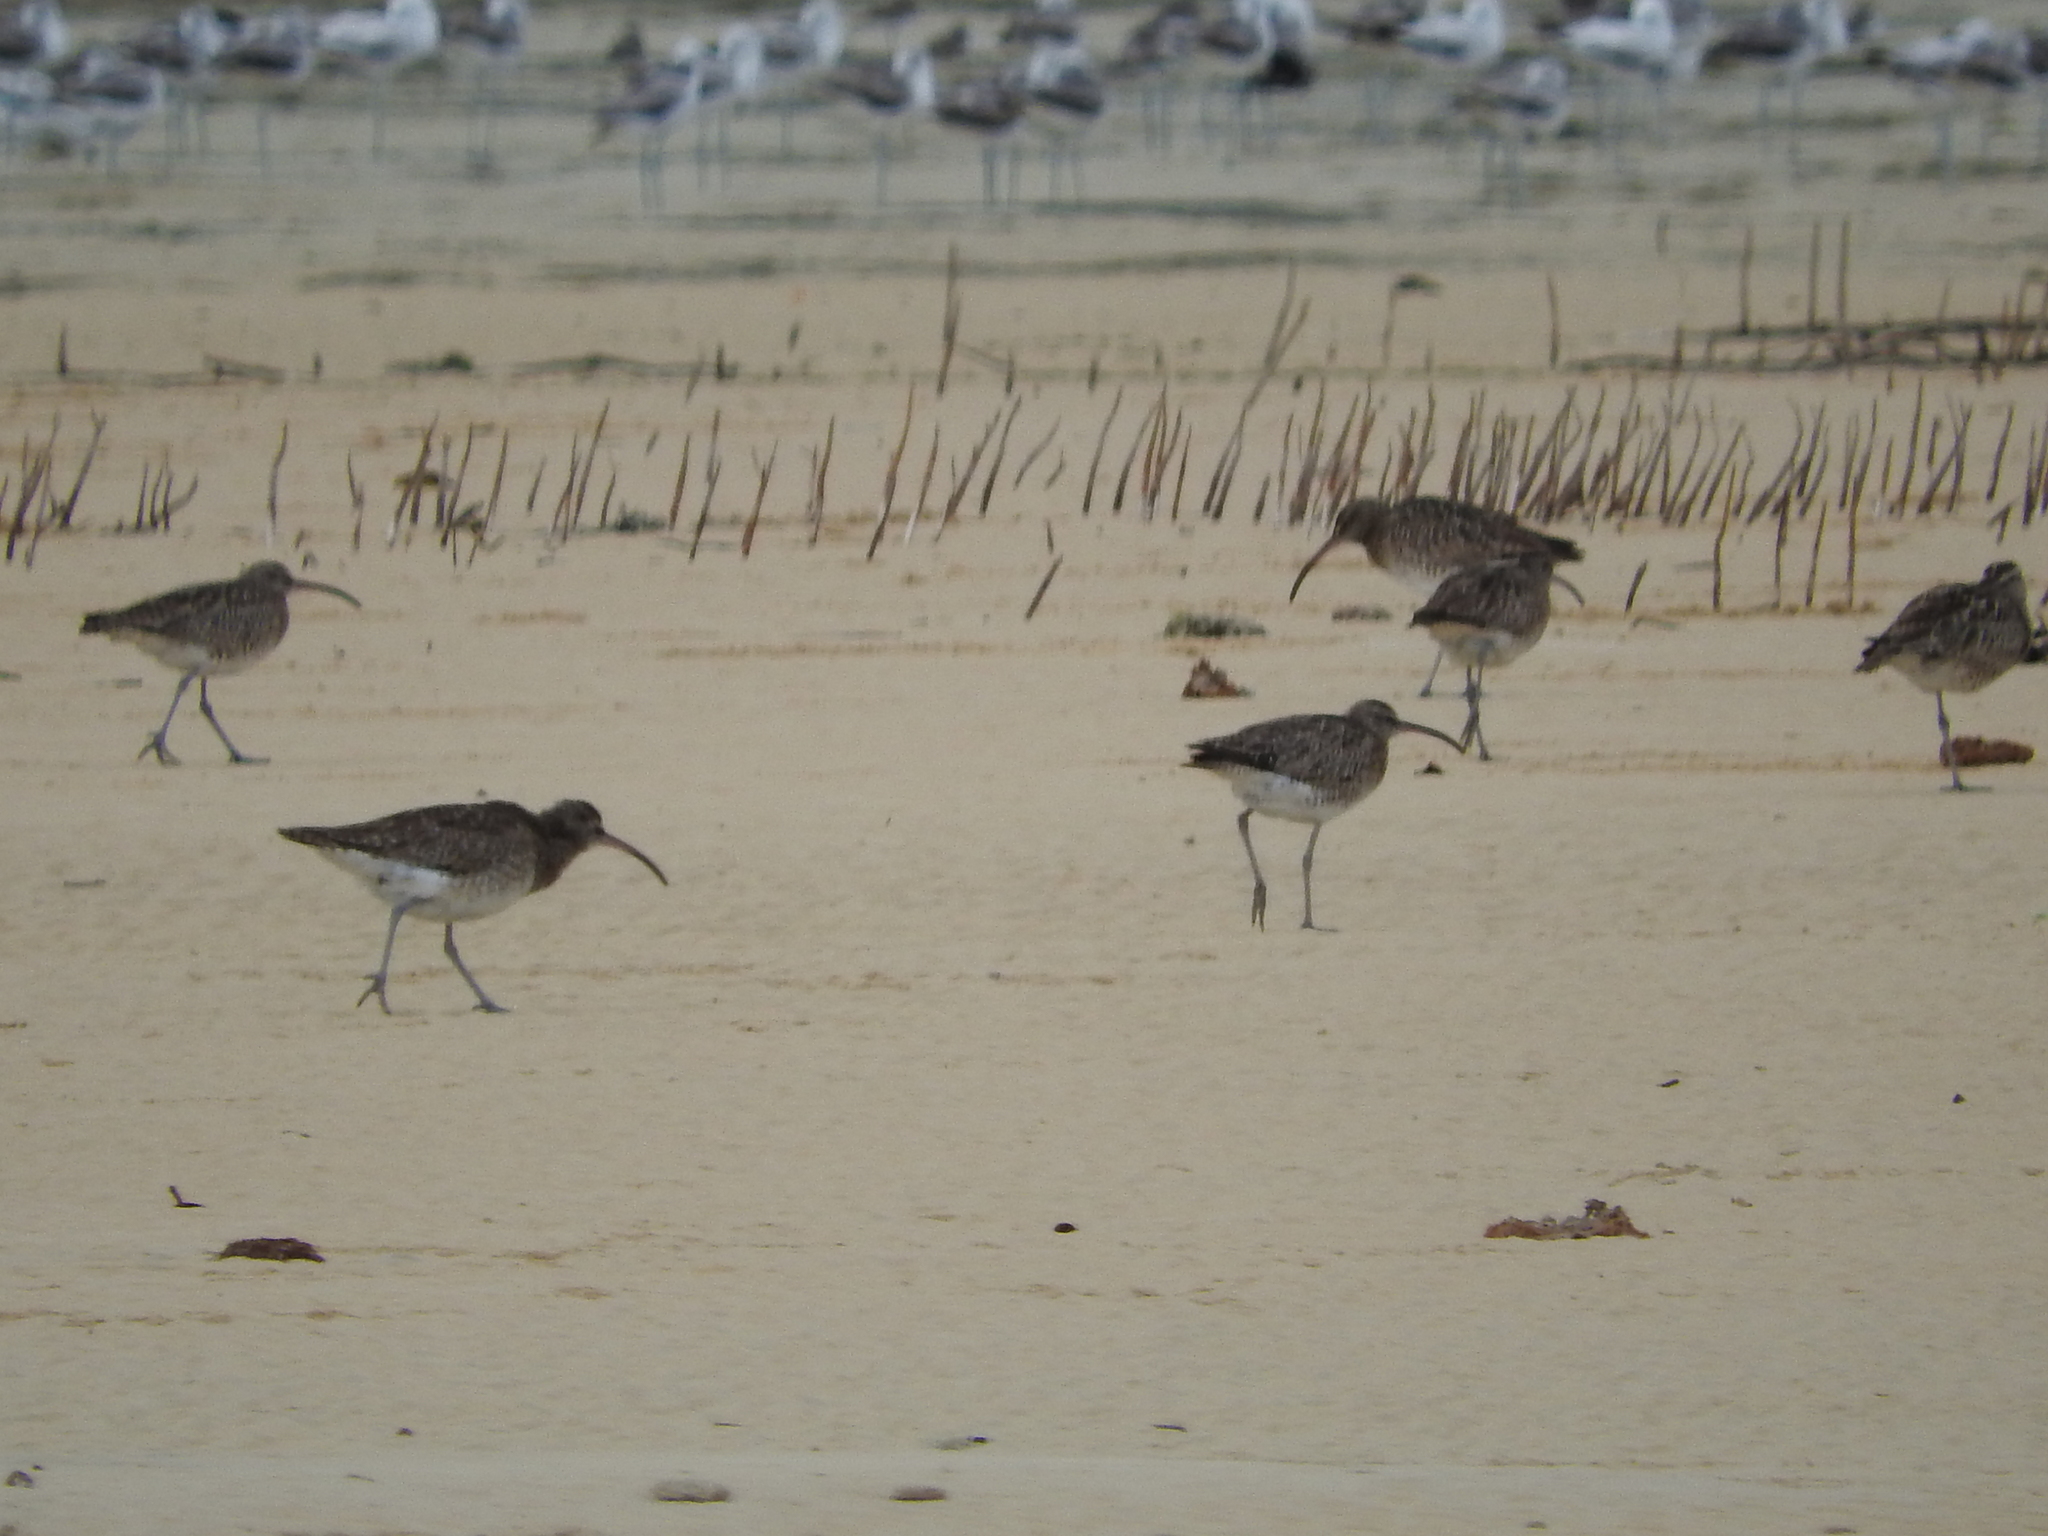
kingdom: Animalia
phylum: Chordata
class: Aves
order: Charadriiformes
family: Scolopacidae
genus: Numenius
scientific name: Numenius phaeopus
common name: Whimbrel
